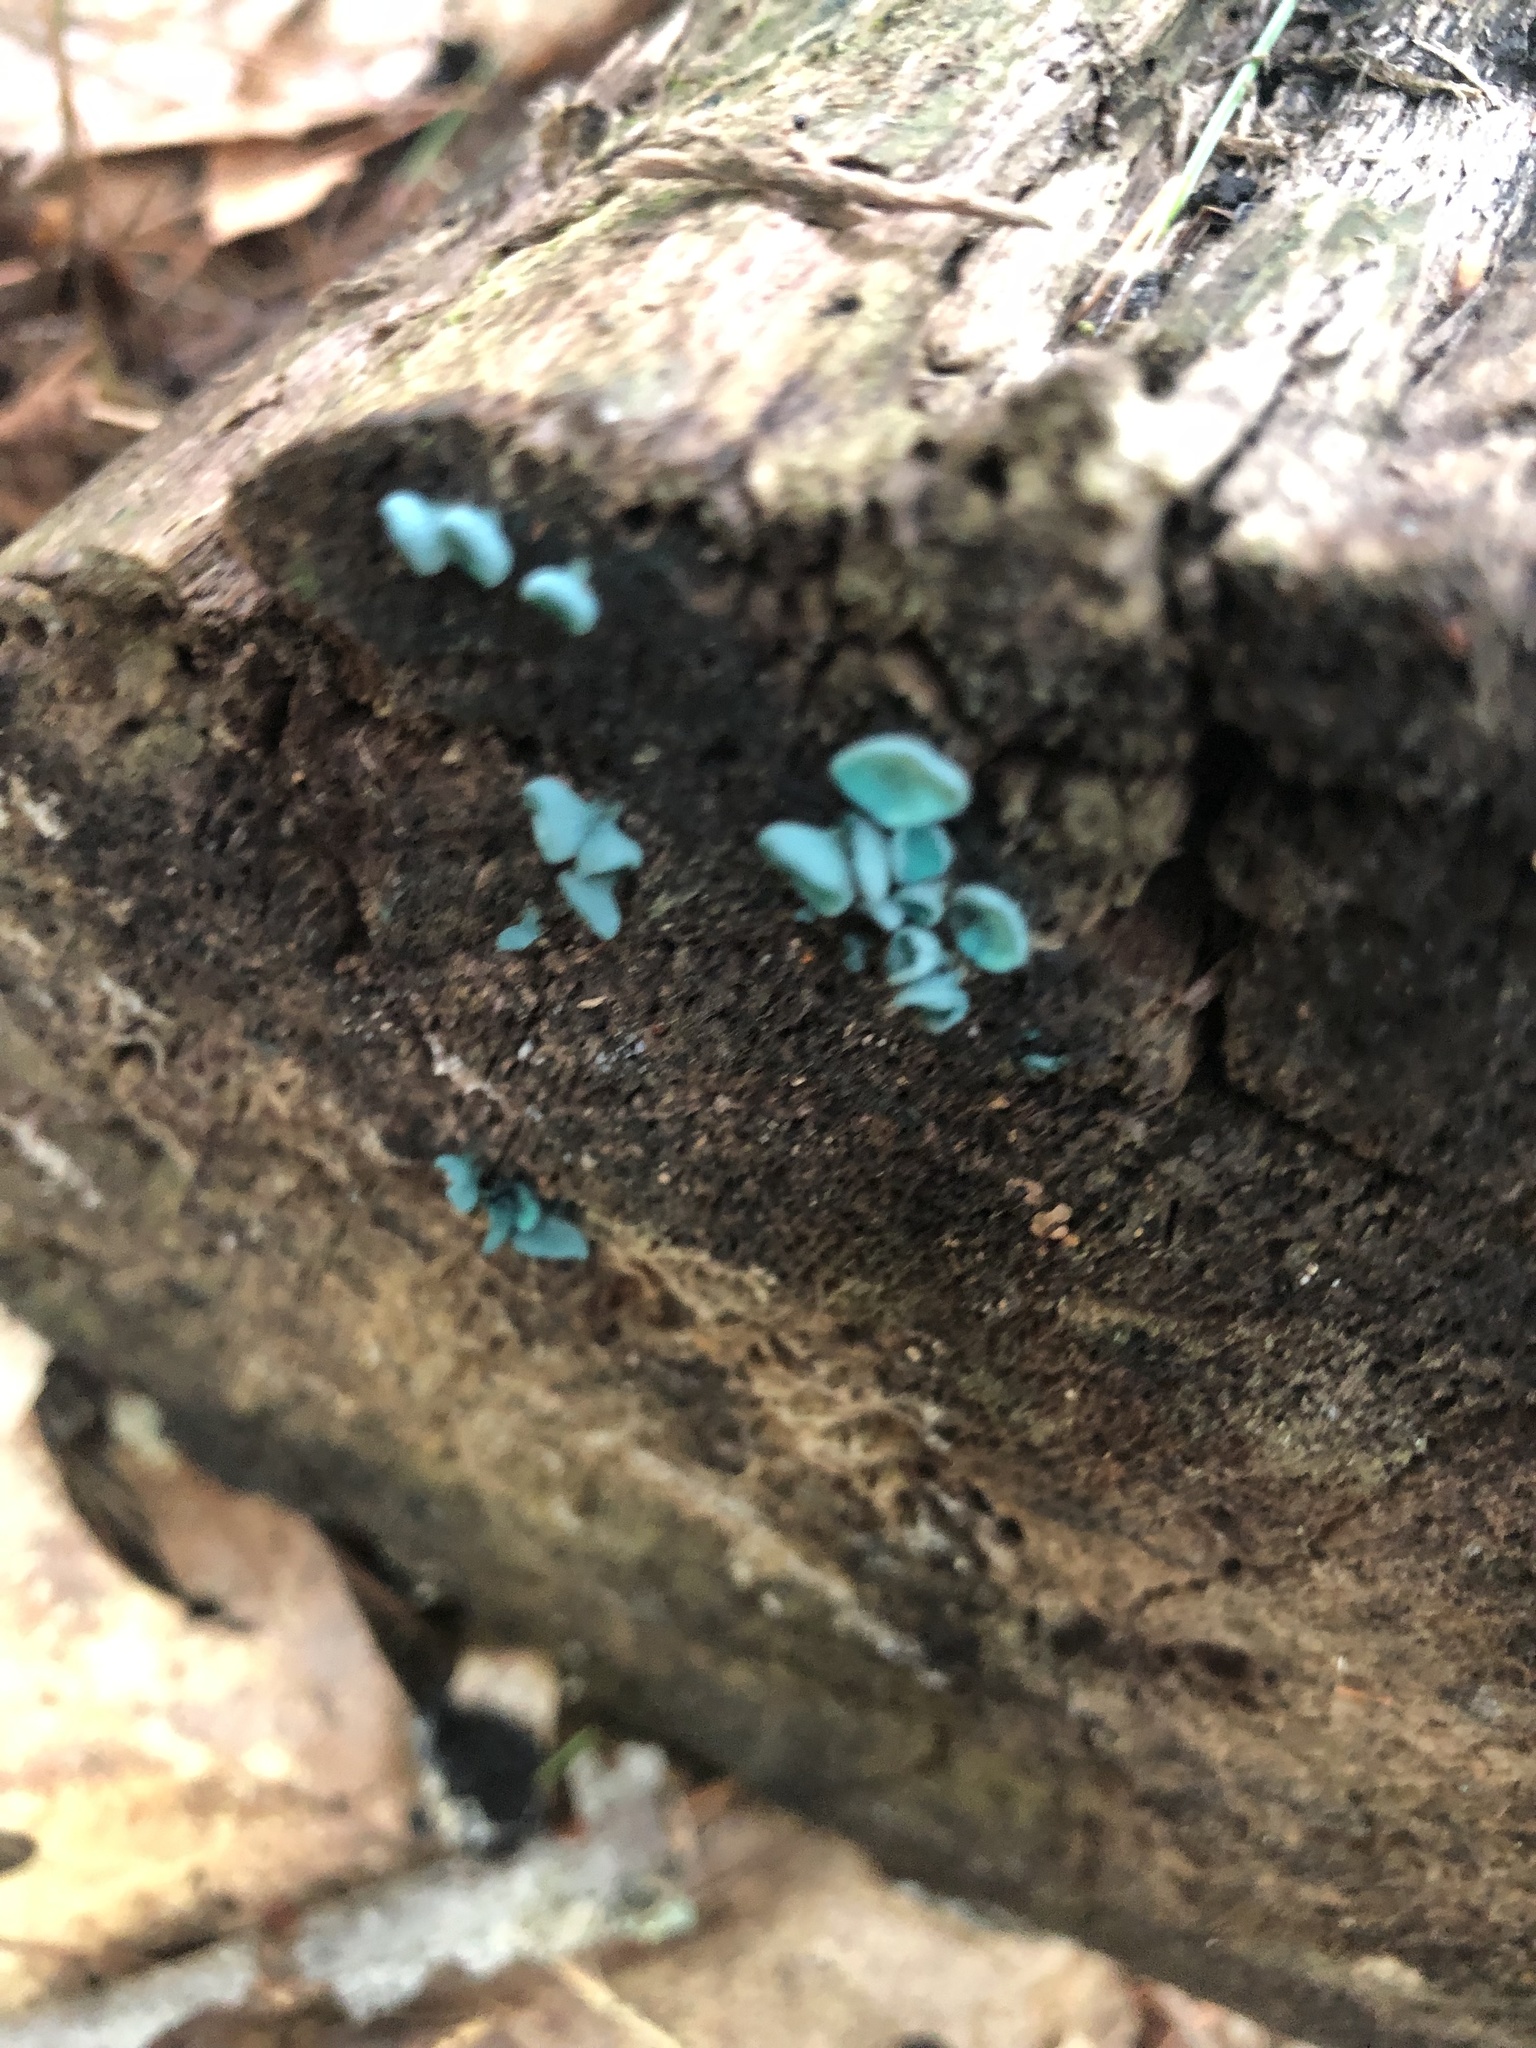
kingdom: Fungi
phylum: Ascomycota
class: Leotiomycetes
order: Helotiales
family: Chlorociboriaceae
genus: Chlorociboria
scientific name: Chlorociboria aeruginascens
